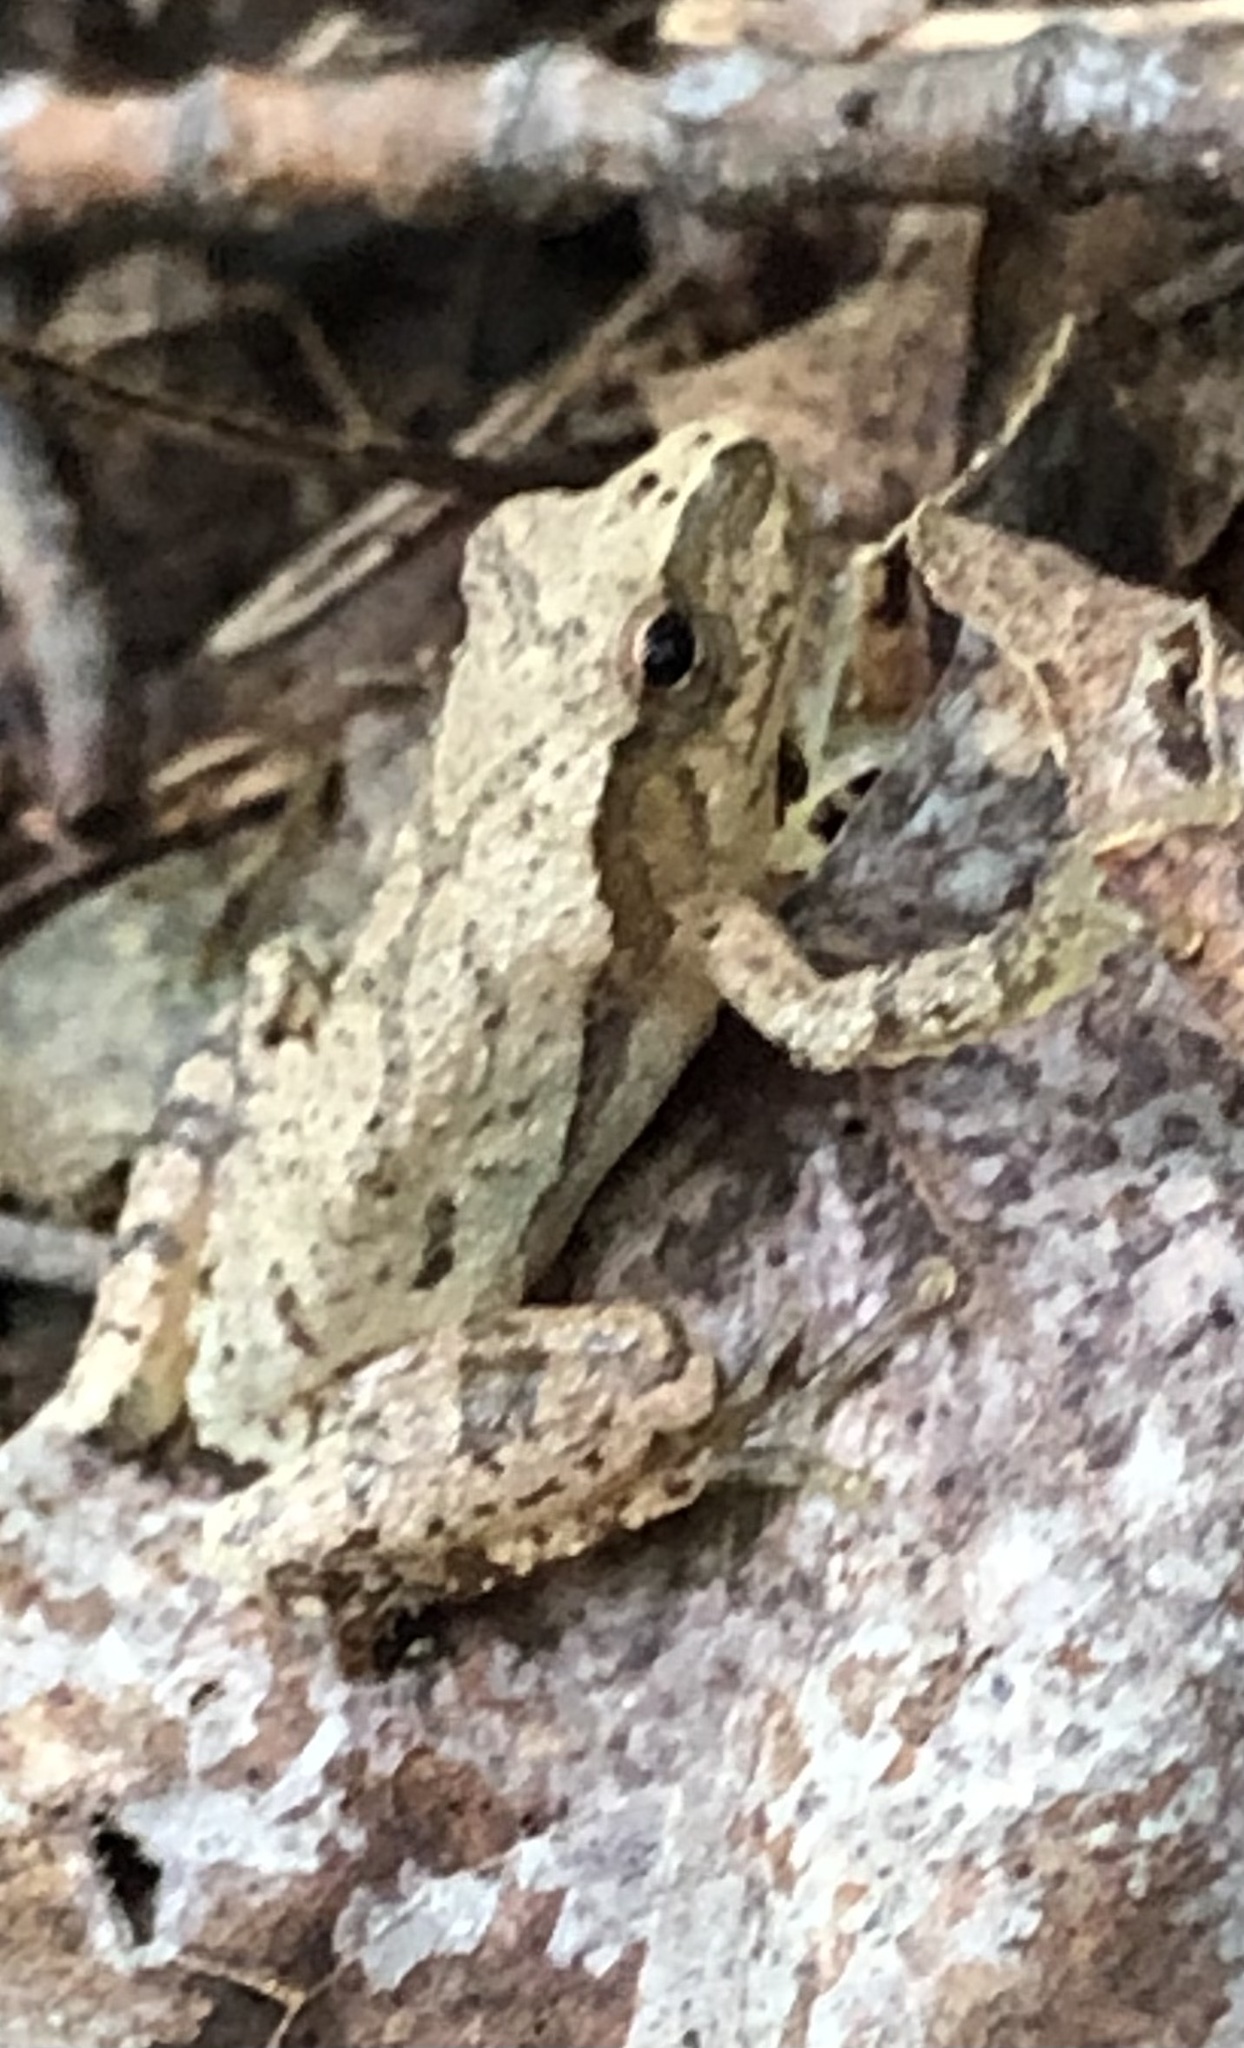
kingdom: Animalia
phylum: Chordata
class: Amphibia
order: Anura
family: Hylidae
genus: Pseudacris
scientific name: Pseudacris crucifer
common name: Spring peeper
